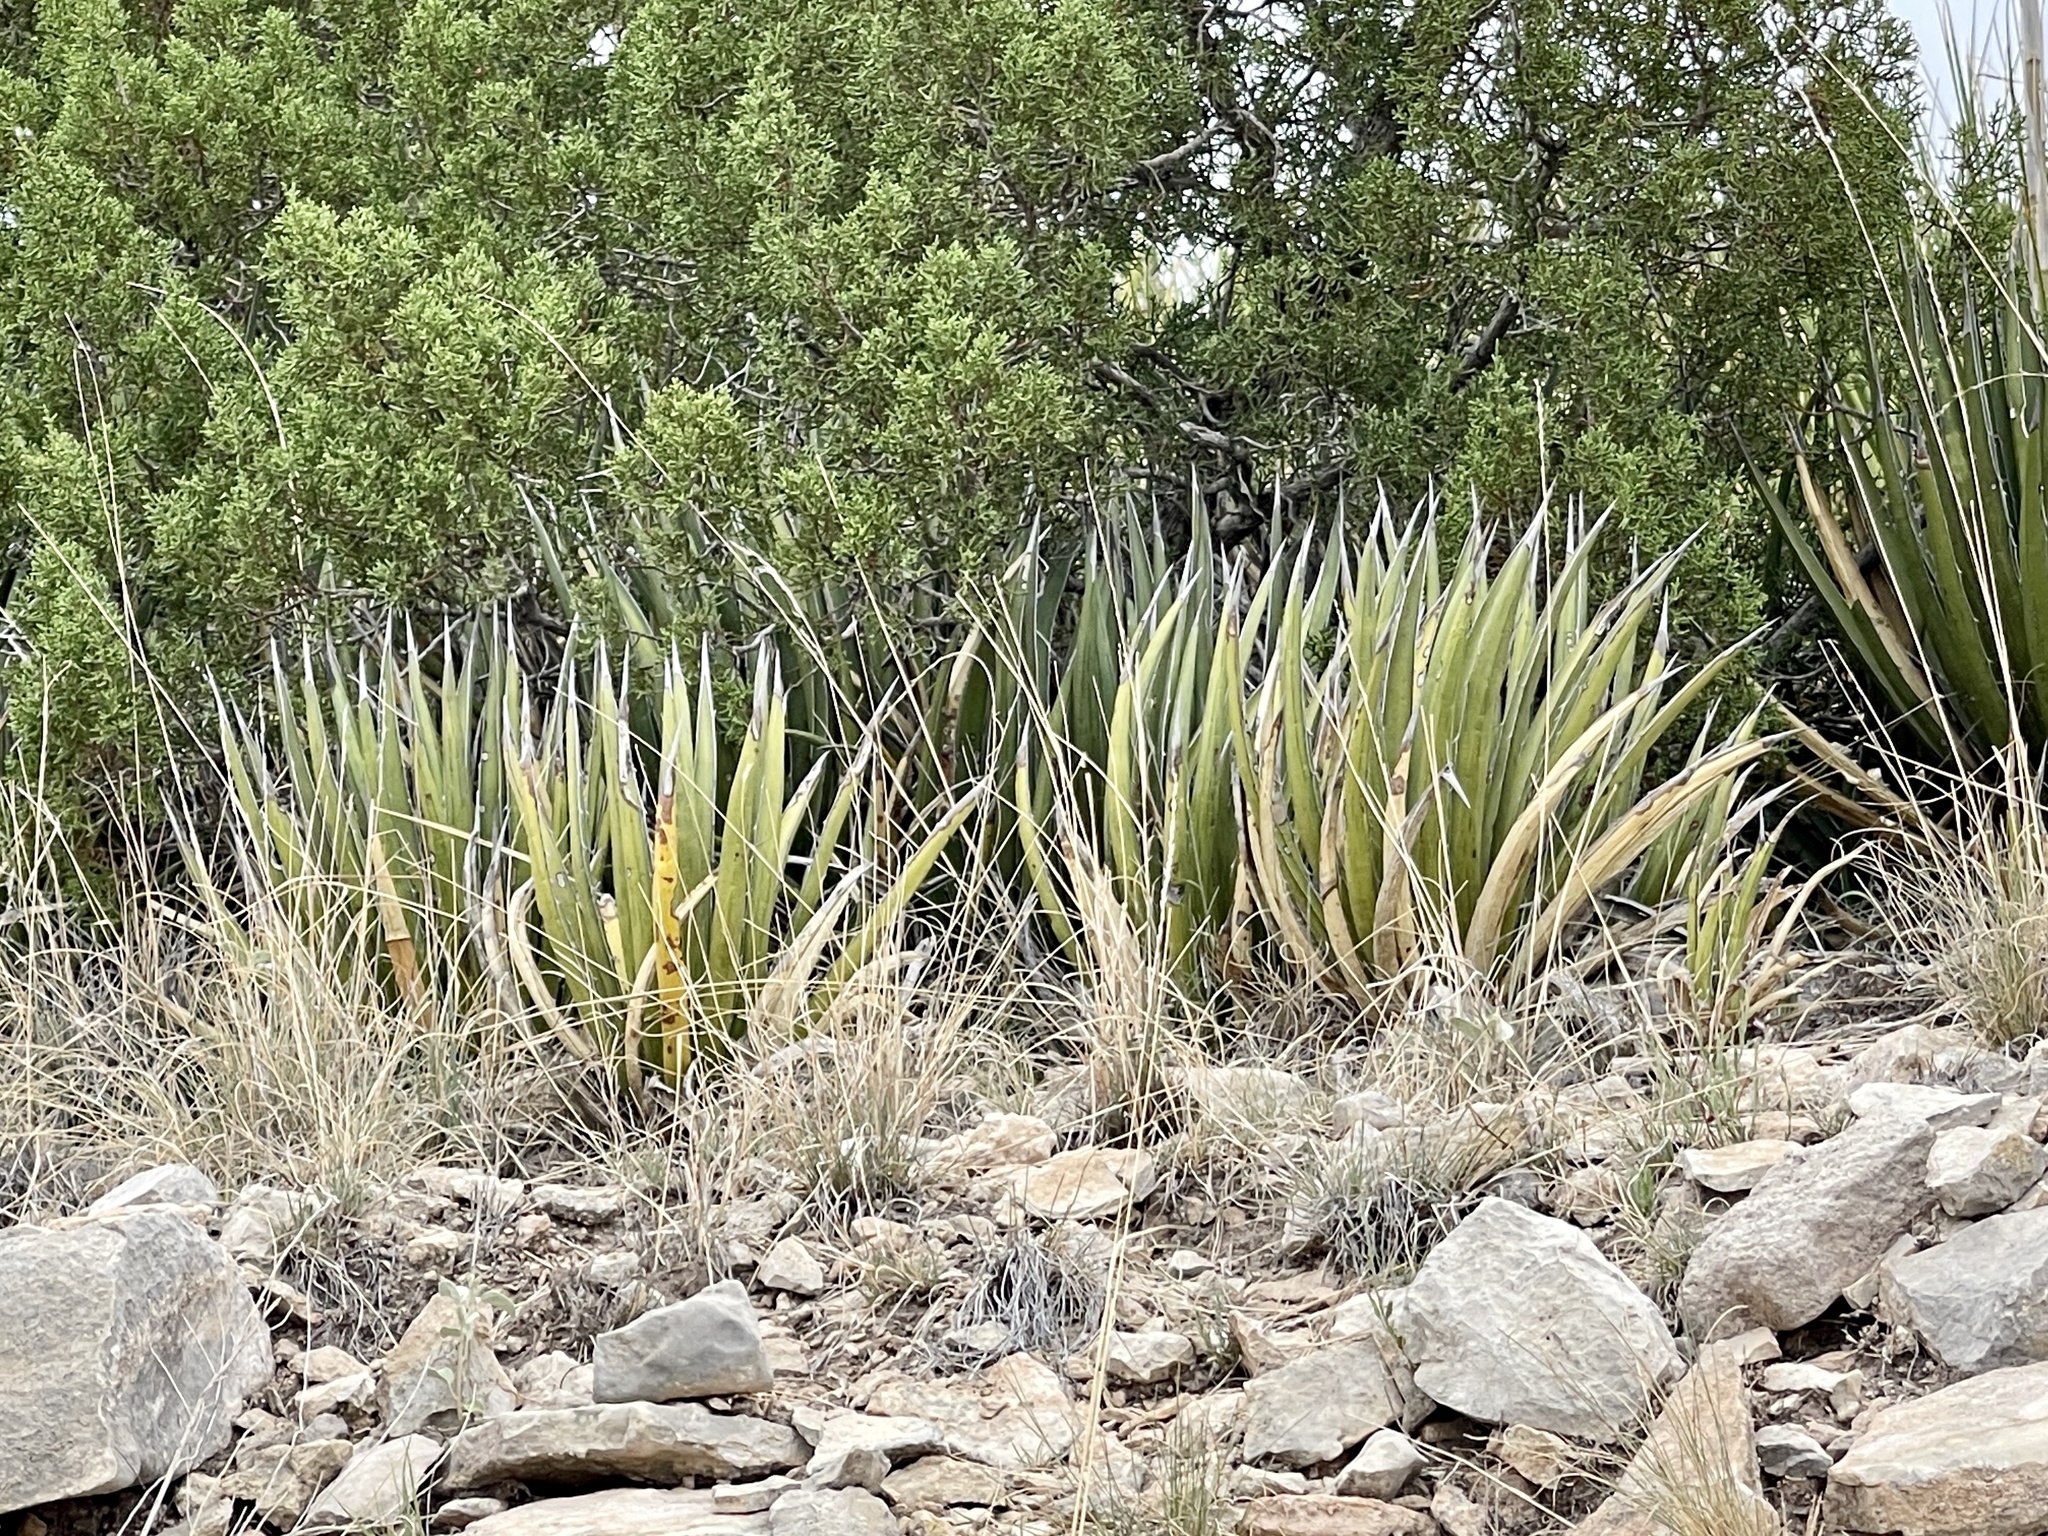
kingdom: Plantae
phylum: Tracheophyta
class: Liliopsida
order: Asparagales
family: Asparagaceae
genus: Agave
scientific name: Agave lechuguilla
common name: Lecheguilla agave
